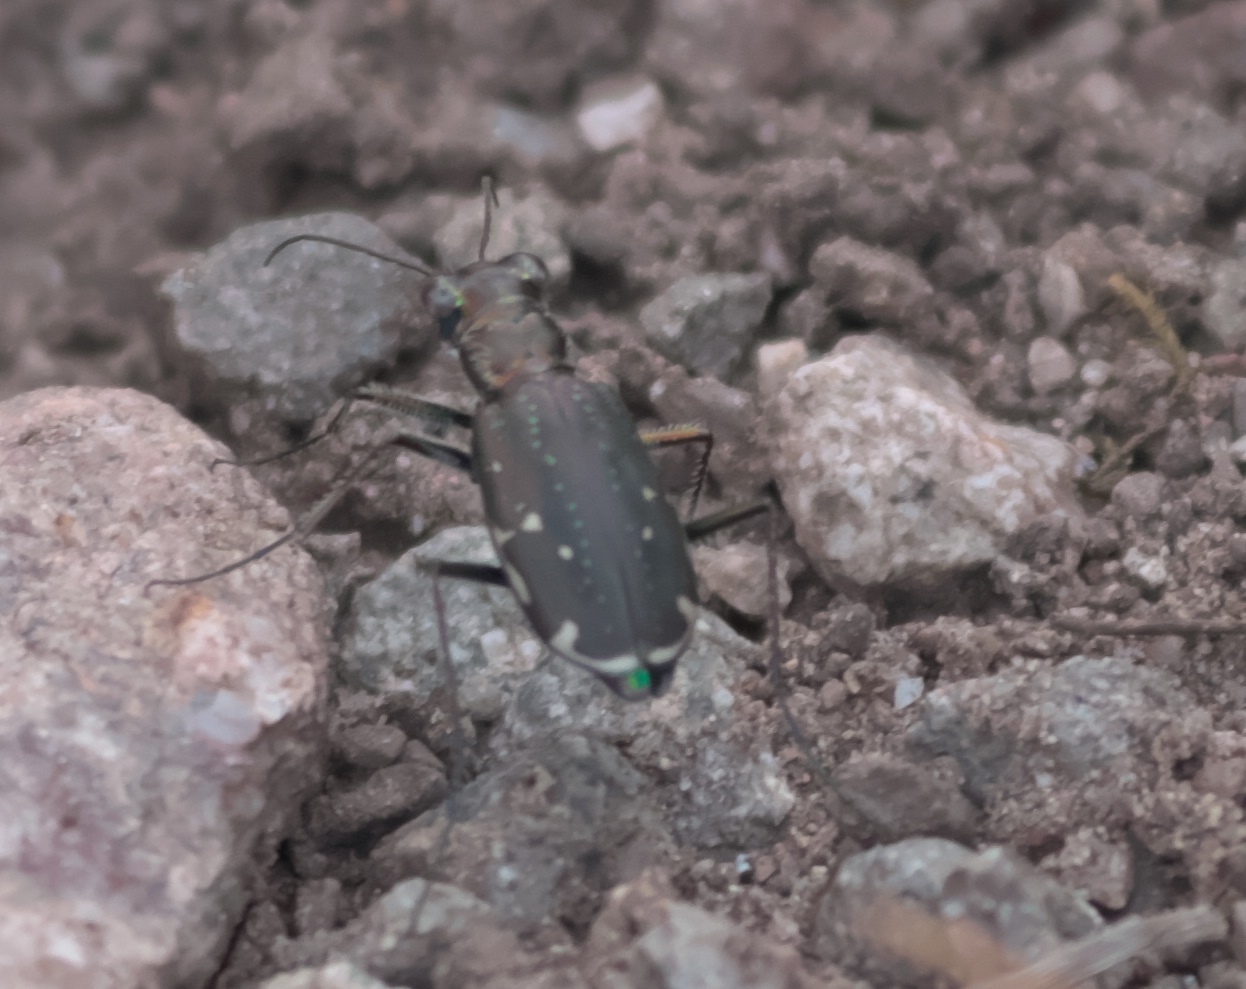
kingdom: Animalia
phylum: Arthropoda
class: Insecta
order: Coleoptera
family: Carabidae
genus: Cicindela
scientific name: Cicindela punctulata
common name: Punctured tiger beetle
